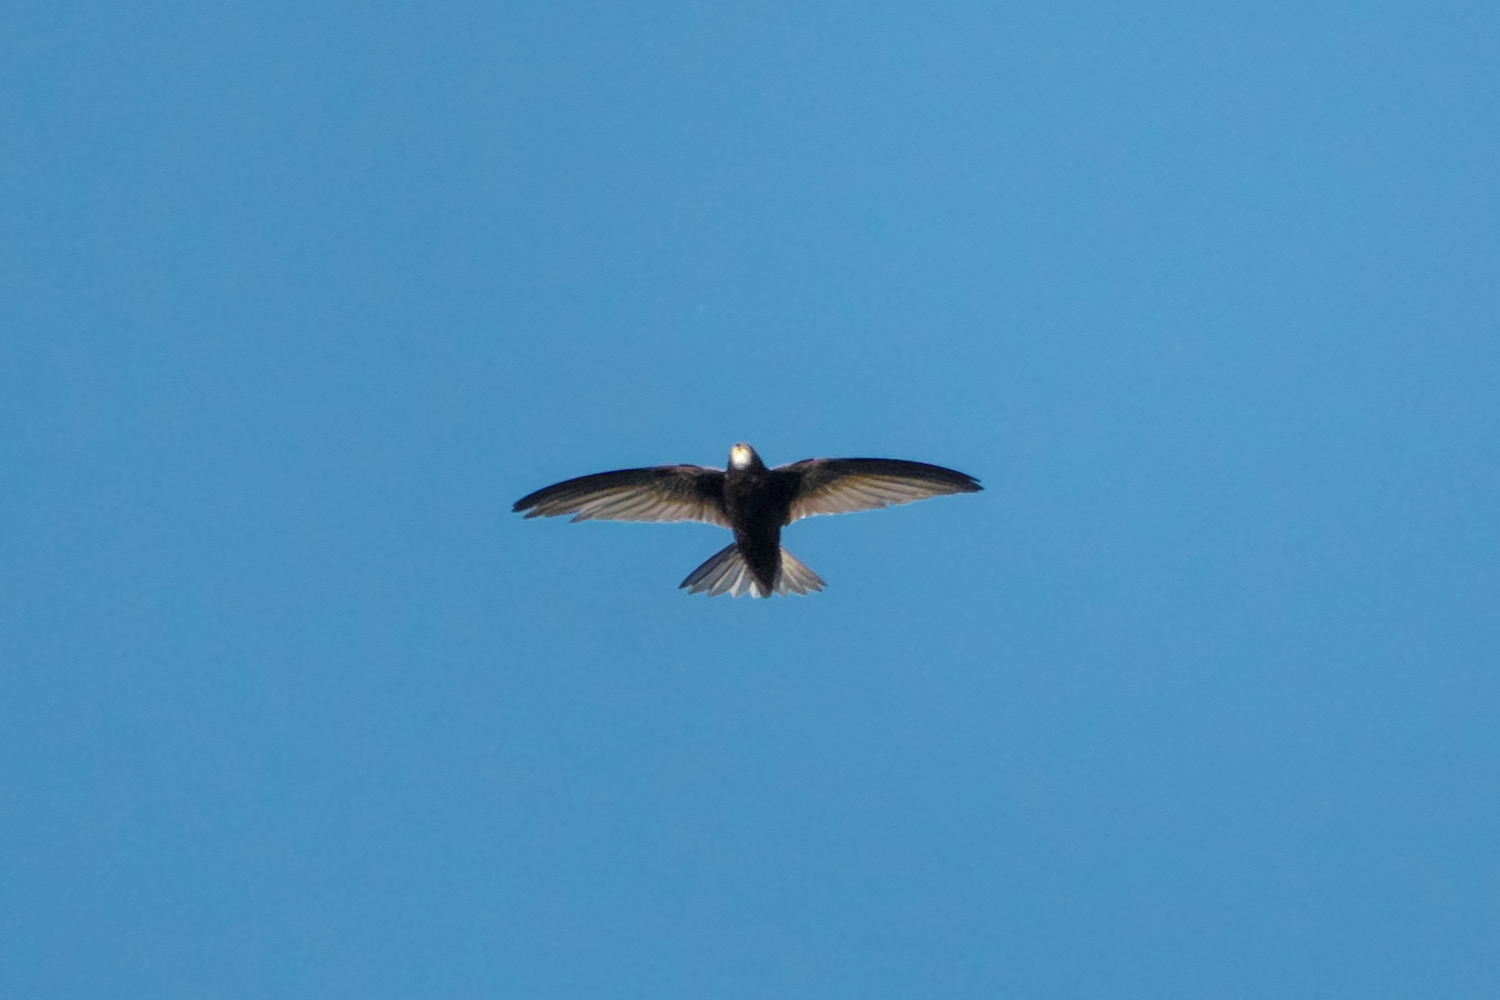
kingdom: Animalia
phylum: Chordata
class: Aves
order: Apodiformes
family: Apodidae
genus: Apus
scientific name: Apus apus
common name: Common swift
